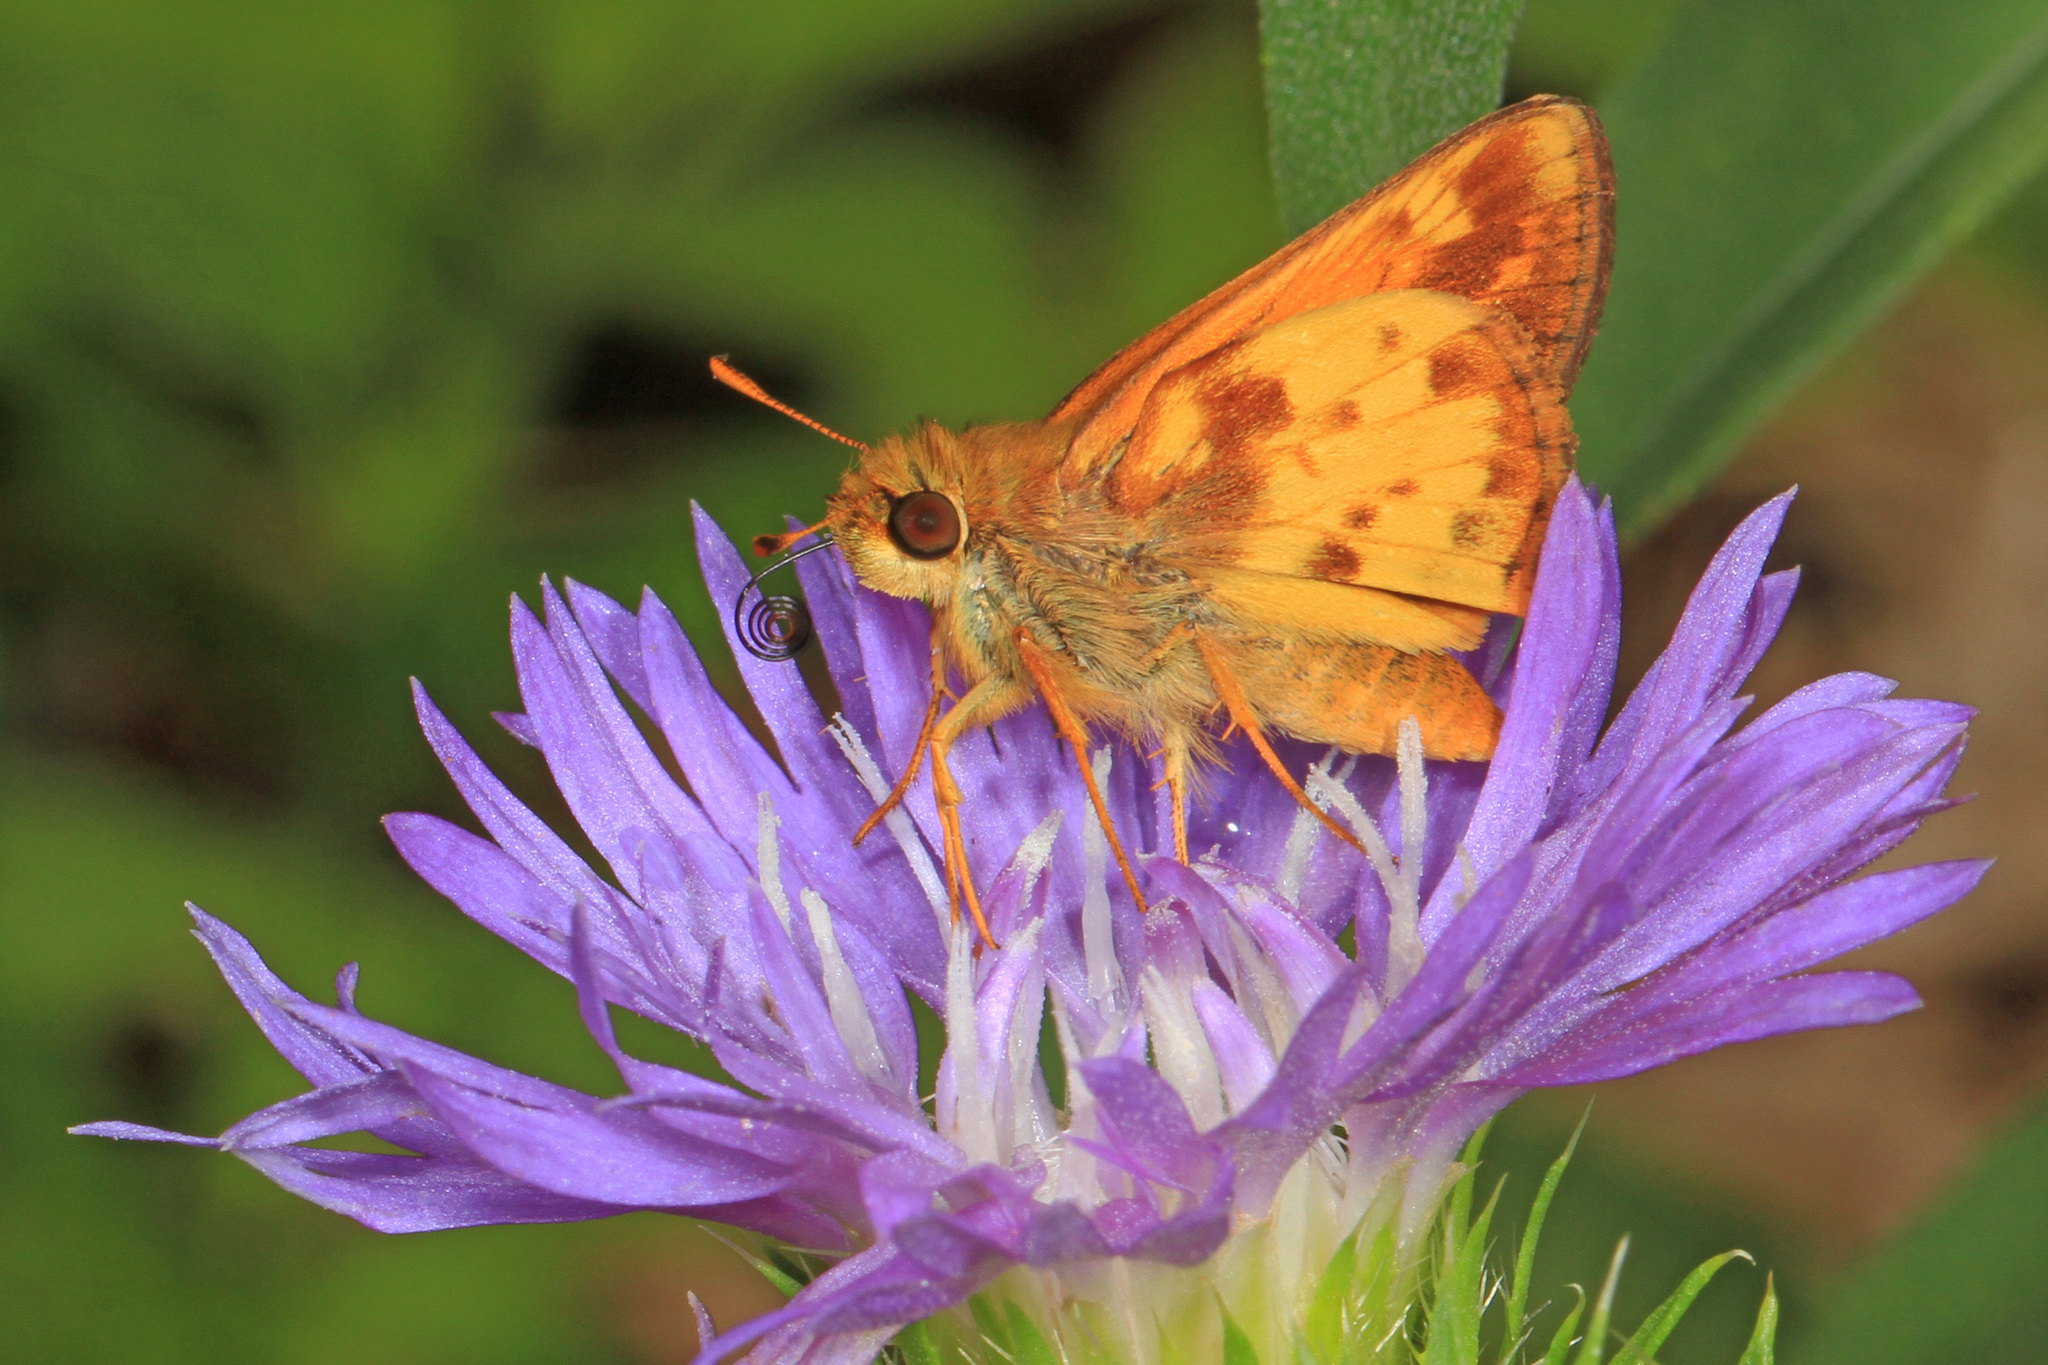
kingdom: Animalia
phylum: Arthropoda
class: Insecta
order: Lepidoptera
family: Hesperiidae
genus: Lon
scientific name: Lon zabulon
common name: Zabulon skipper
